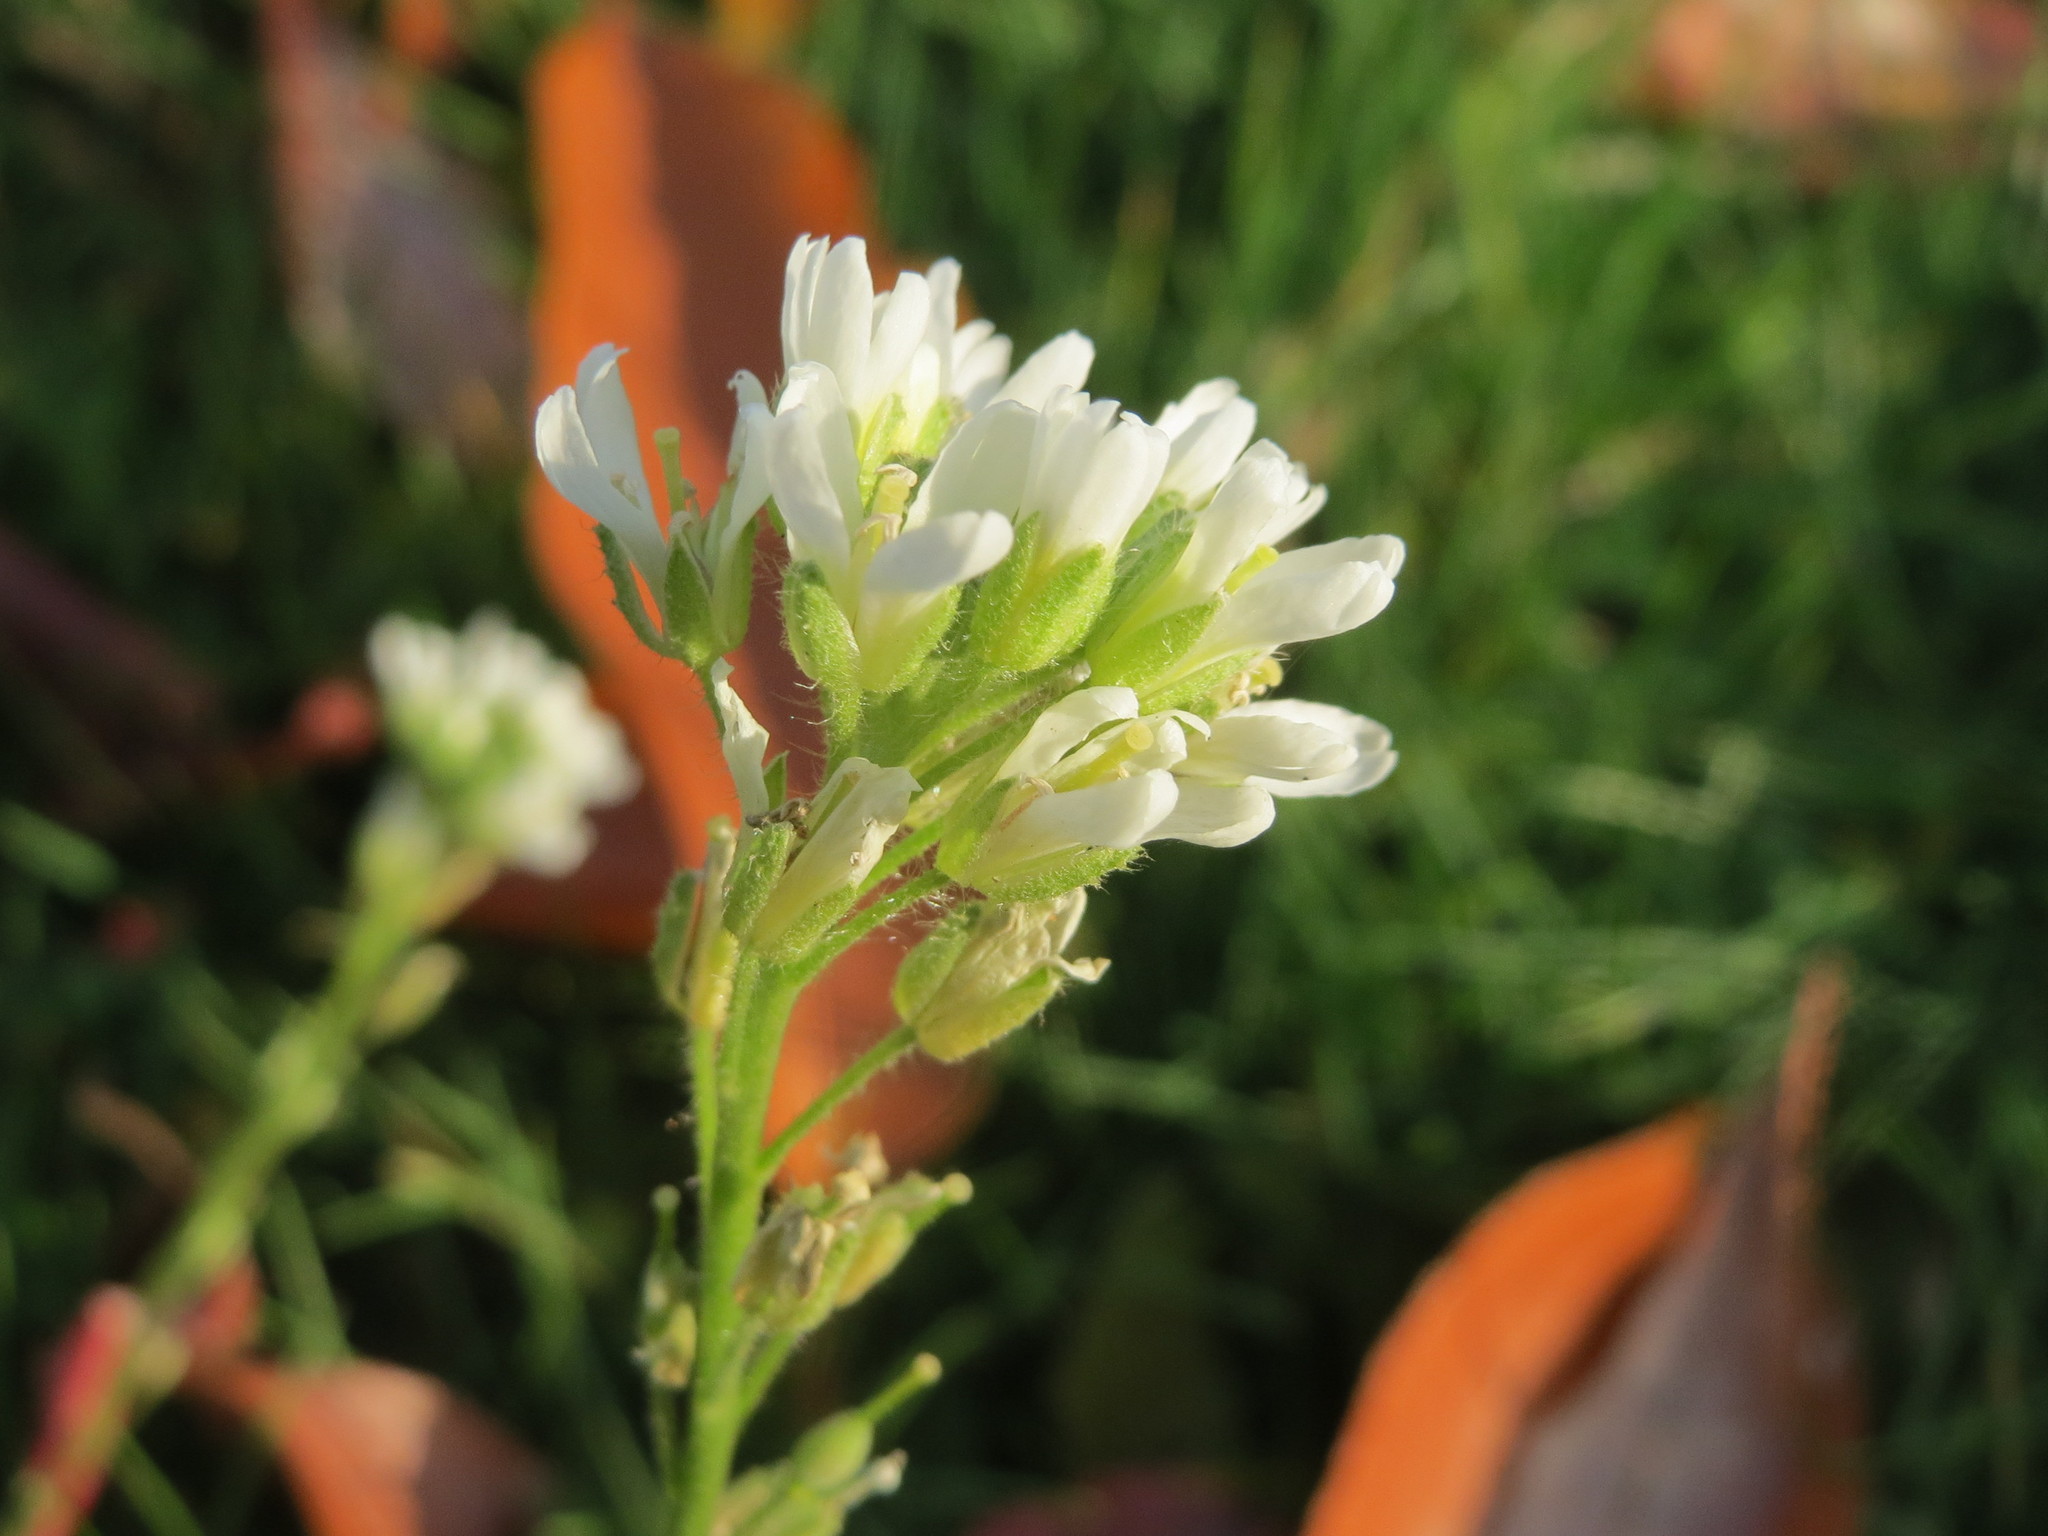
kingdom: Plantae
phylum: Tracheophyta
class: Magnoliopsida
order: Brassicales
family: Brassicaceae
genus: Berteroa
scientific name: Berteroa incana
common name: Hoary alison
